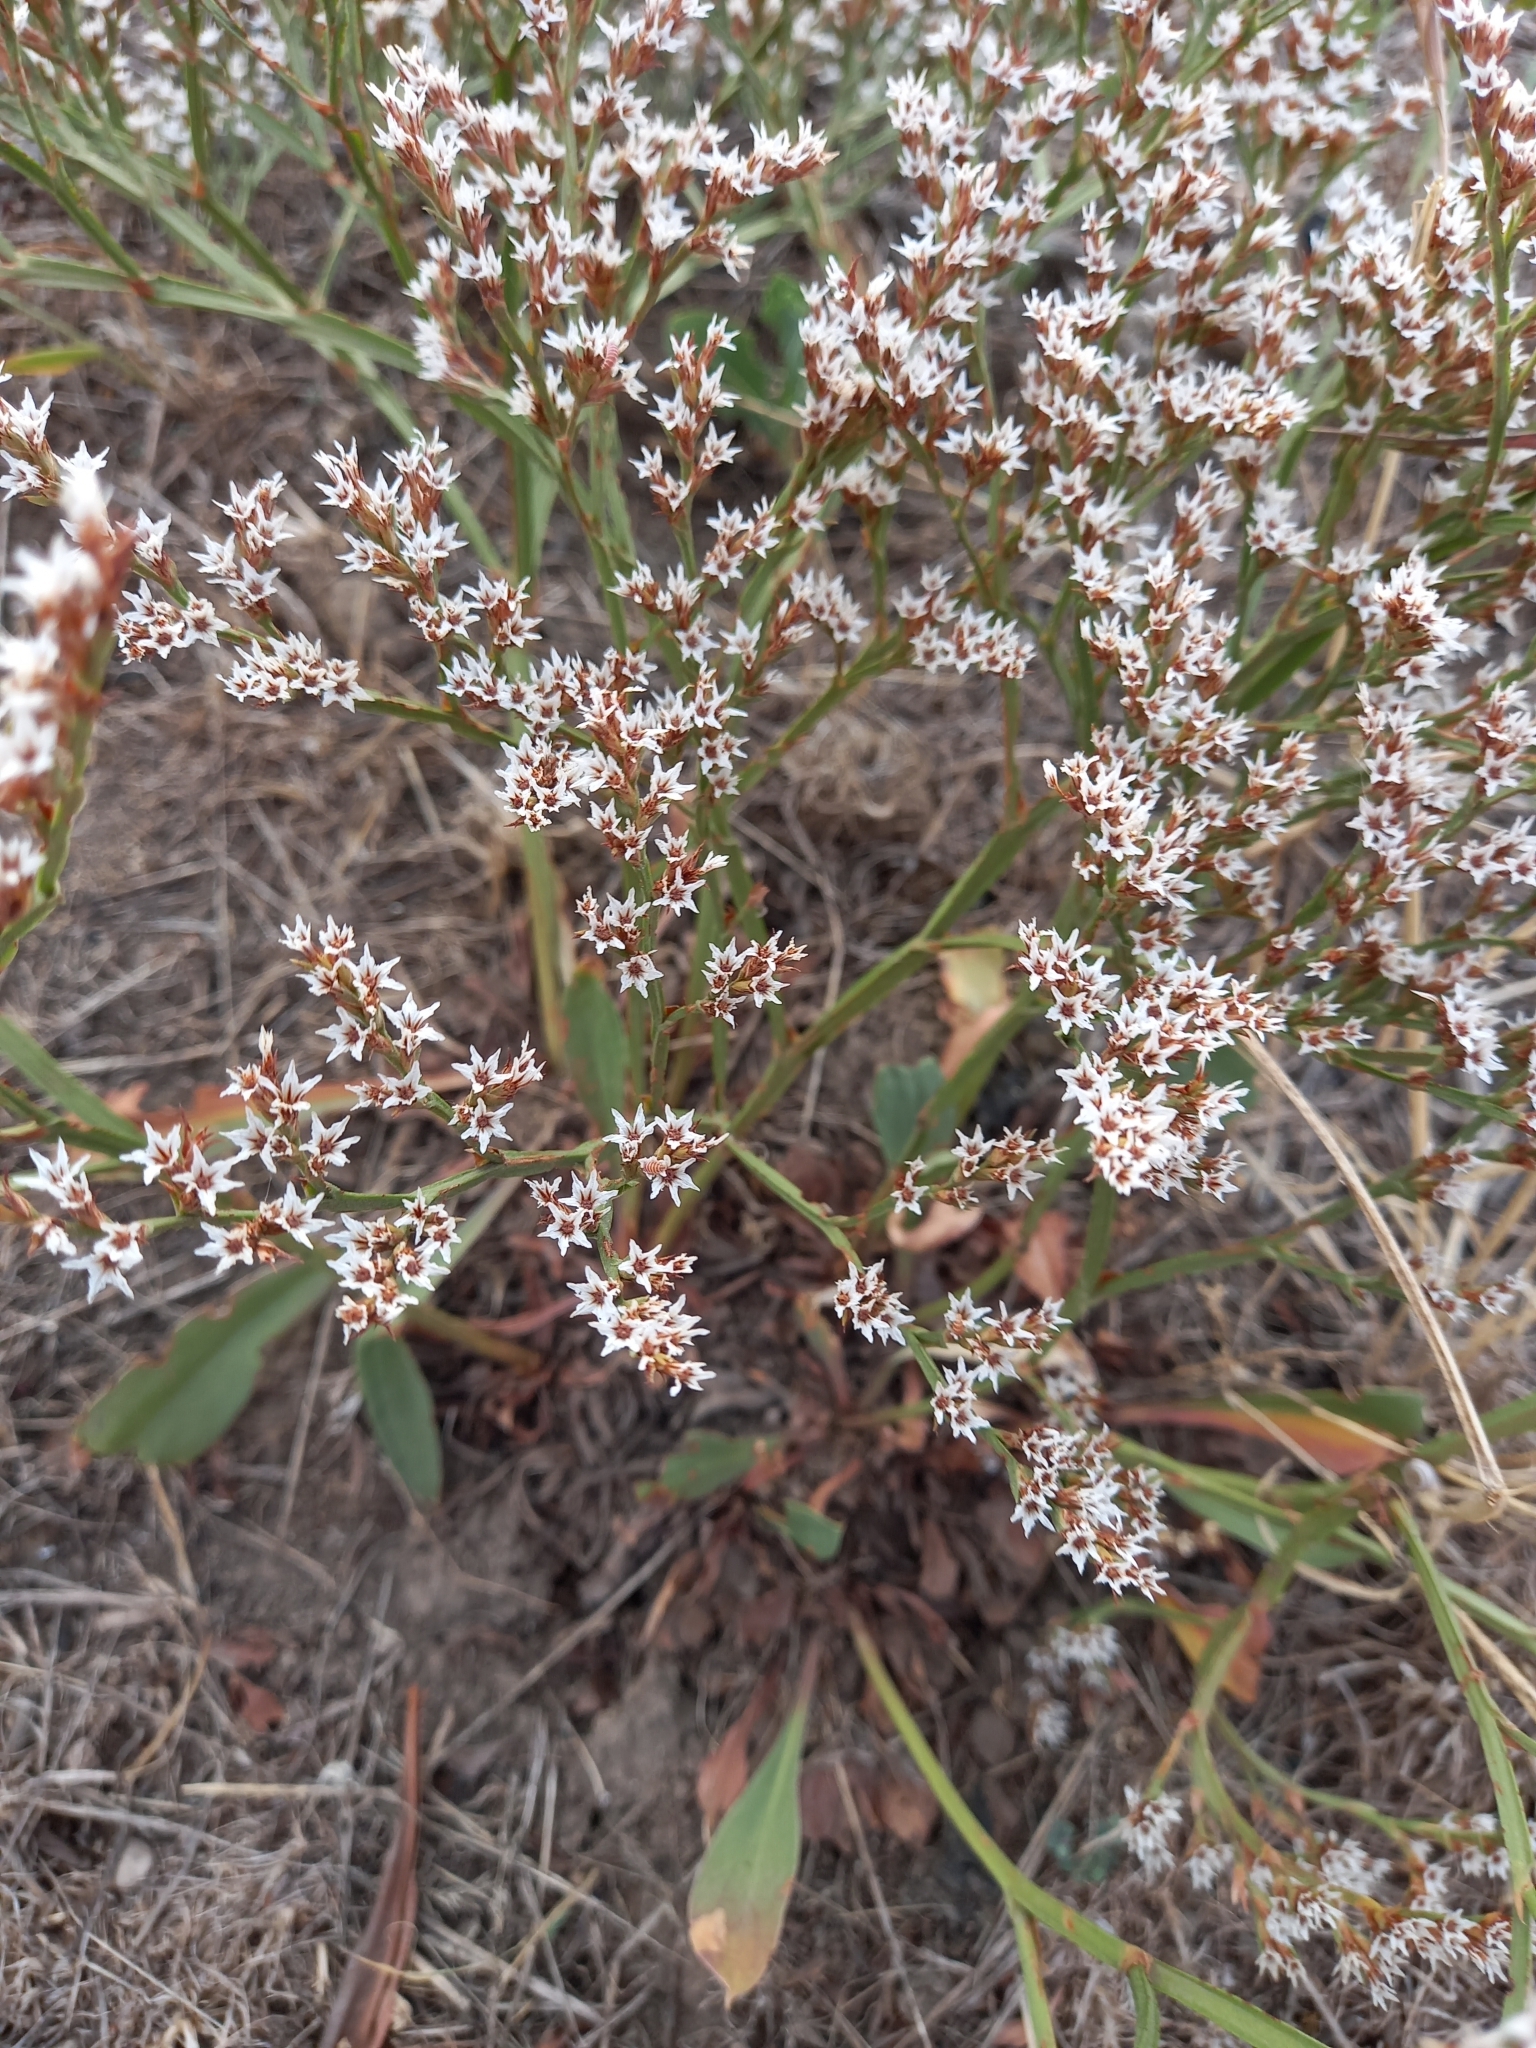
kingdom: Plantae
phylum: Tracheophyta
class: Magnoliopsida
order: Caryophyllales
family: Plumbaginaceae
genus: Goniolimon
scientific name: Goniolimon tataricum
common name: Statice
